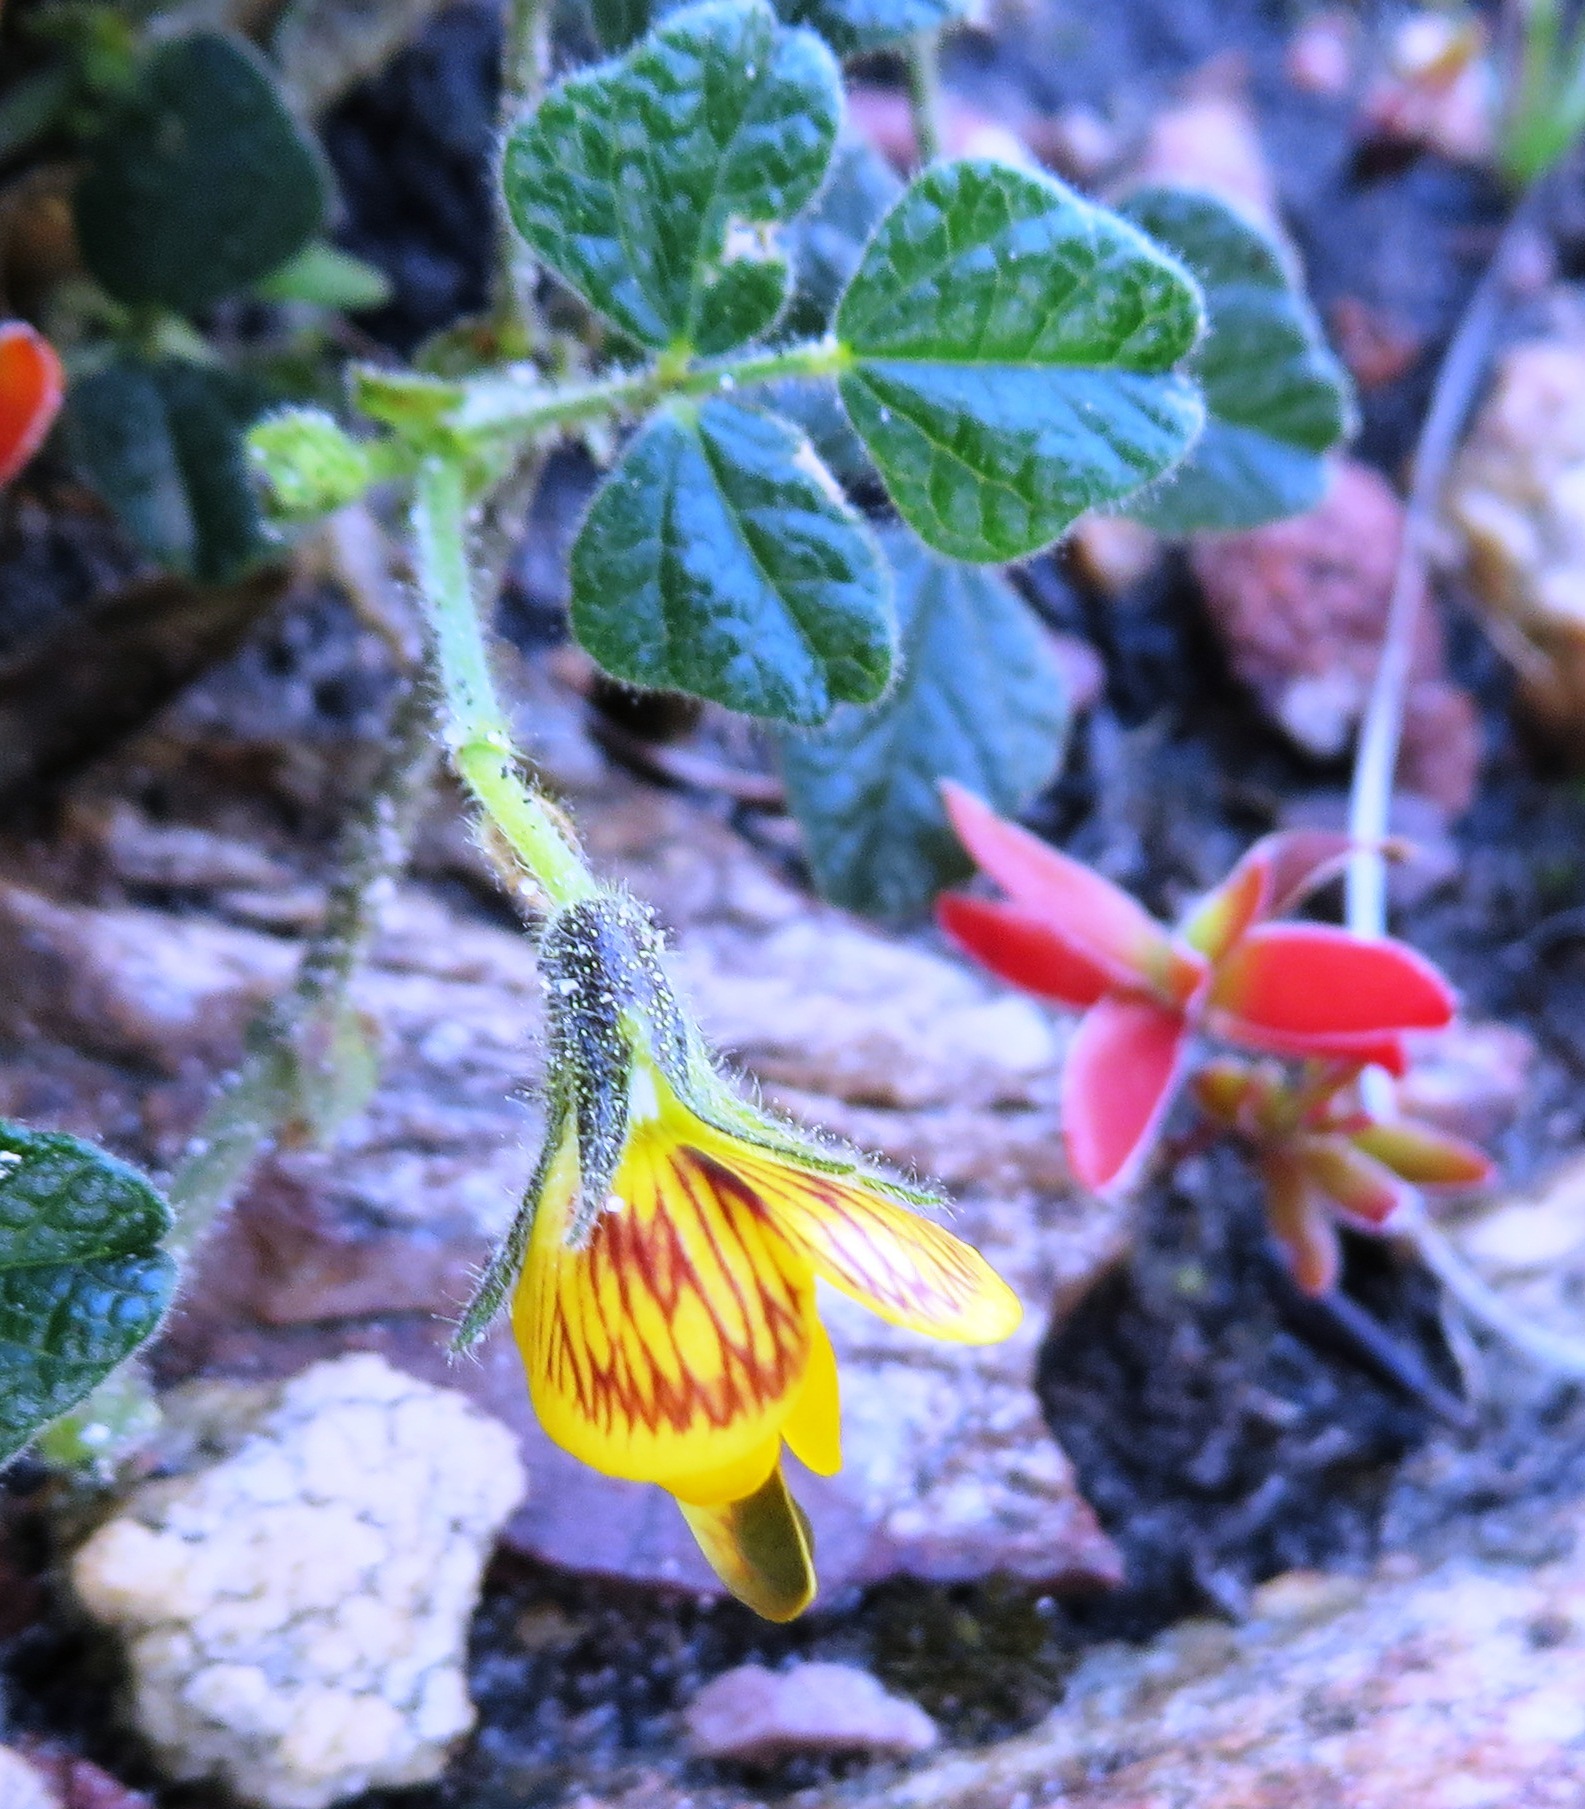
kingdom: Plantae
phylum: Tracheophyta
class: Magnoliopsida
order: Fabales
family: Fabaceae
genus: Bolusafra
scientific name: Bolusafra bituminosa
